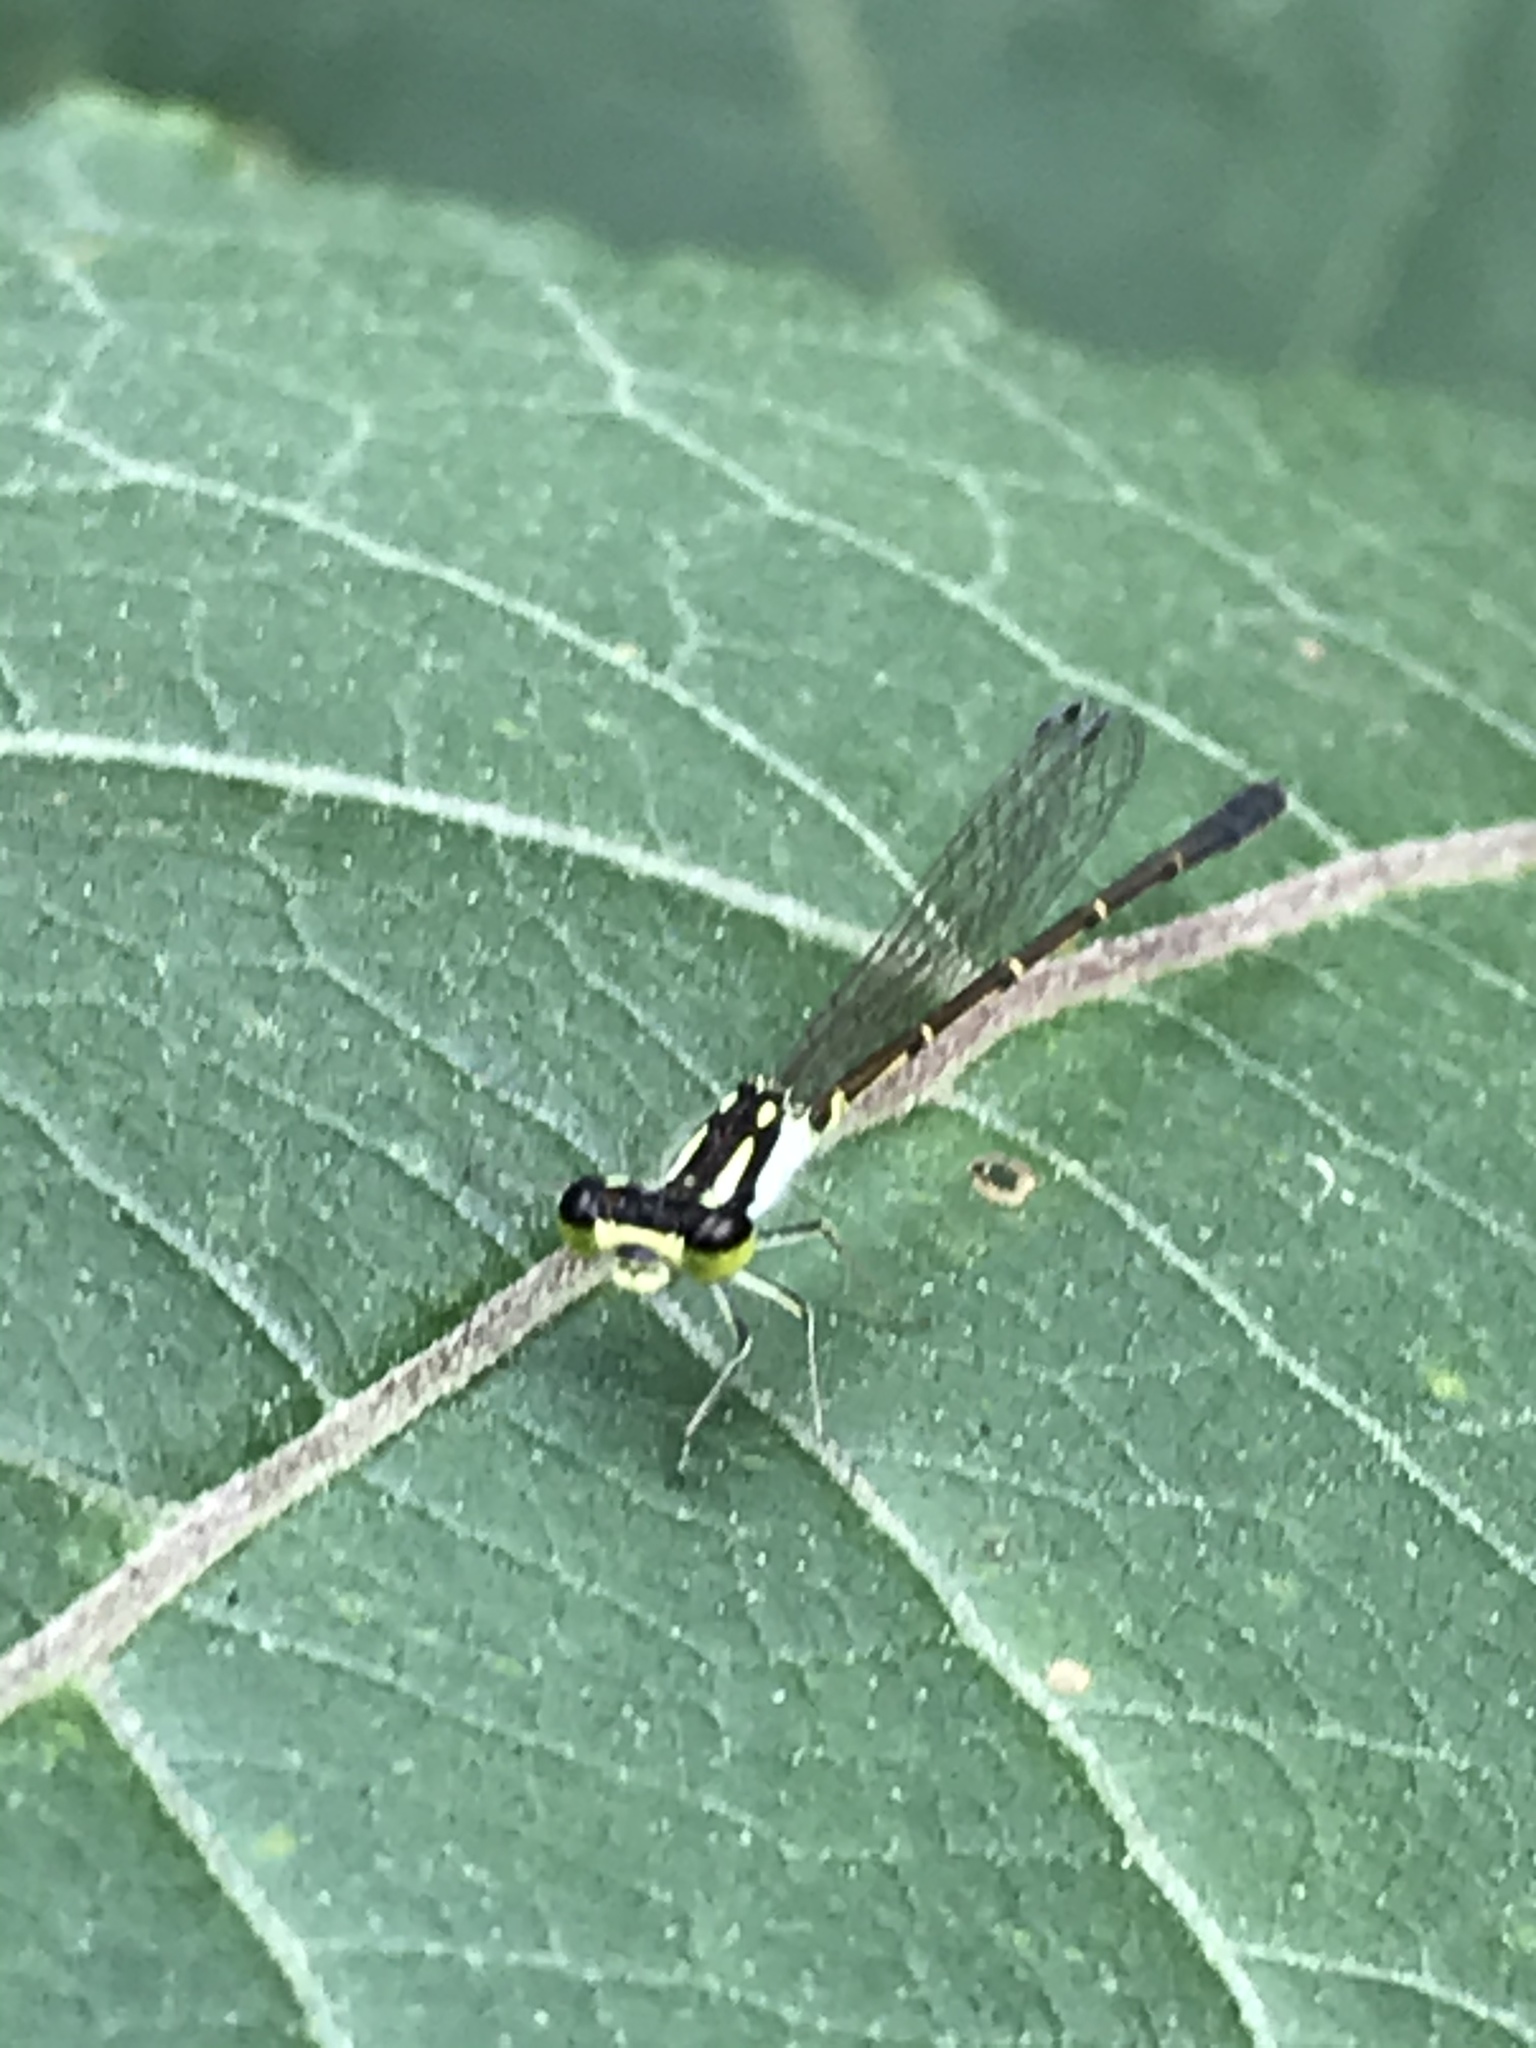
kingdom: Animalia
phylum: Arthropoda
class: Insecta
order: Odonata
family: Coenagrionidae
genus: Ischnura
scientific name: Ischnura posita
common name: Fragile forktail
